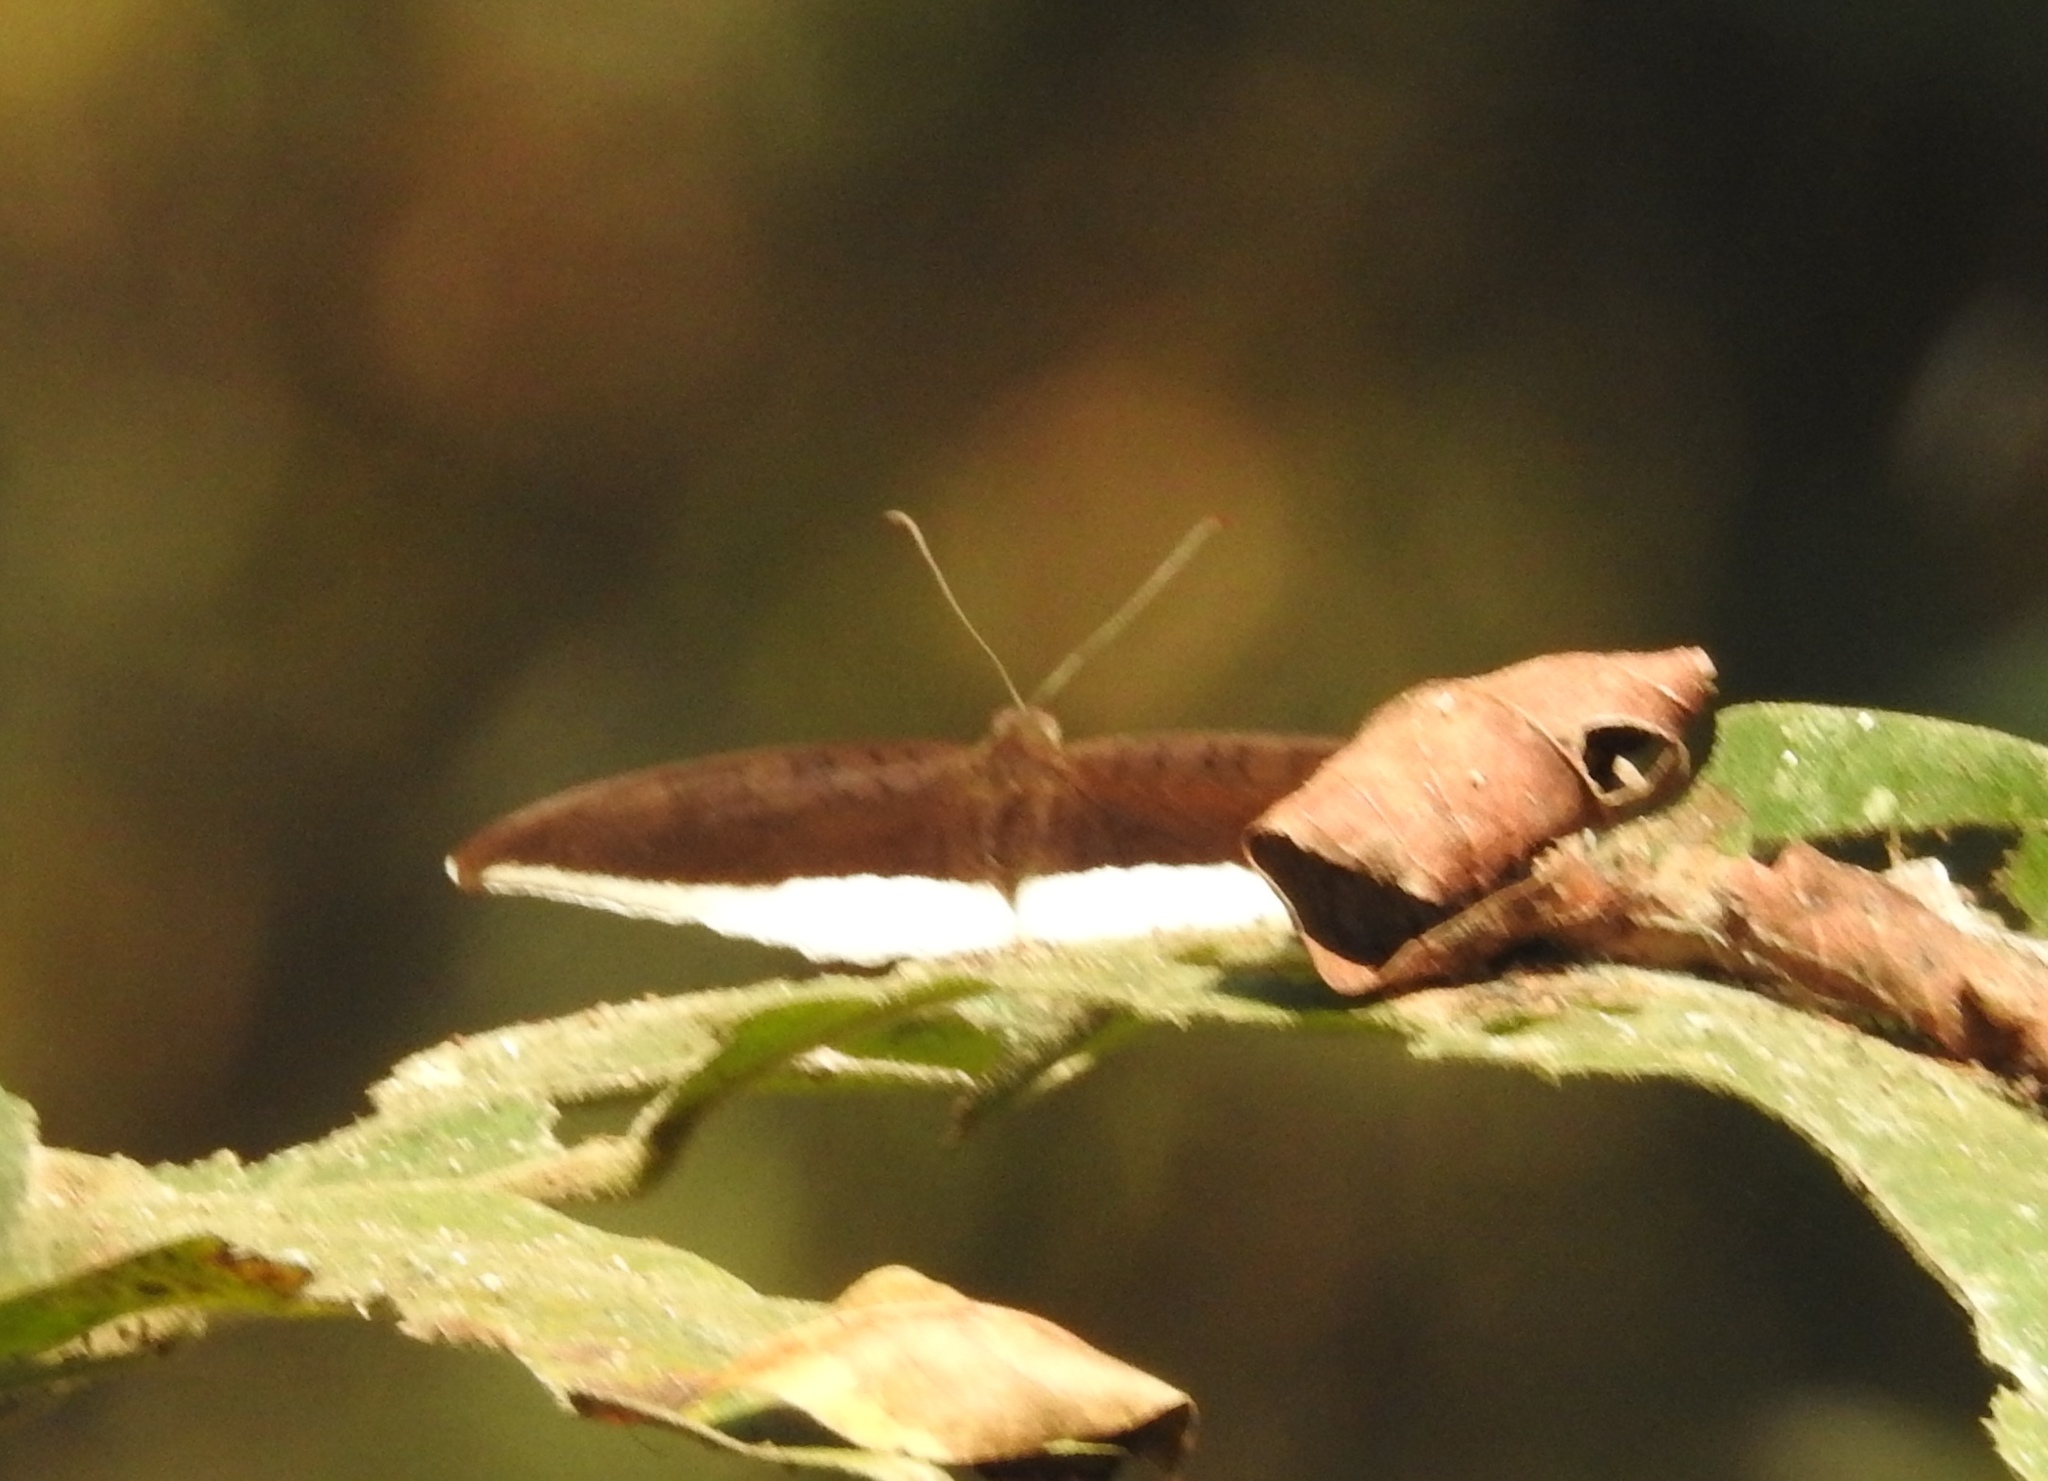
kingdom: Animalia
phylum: Arthropoda
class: Insecta
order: Lepidoptera
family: Nymphalidae
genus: Tanaecia
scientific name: Tanaecia lepidea
